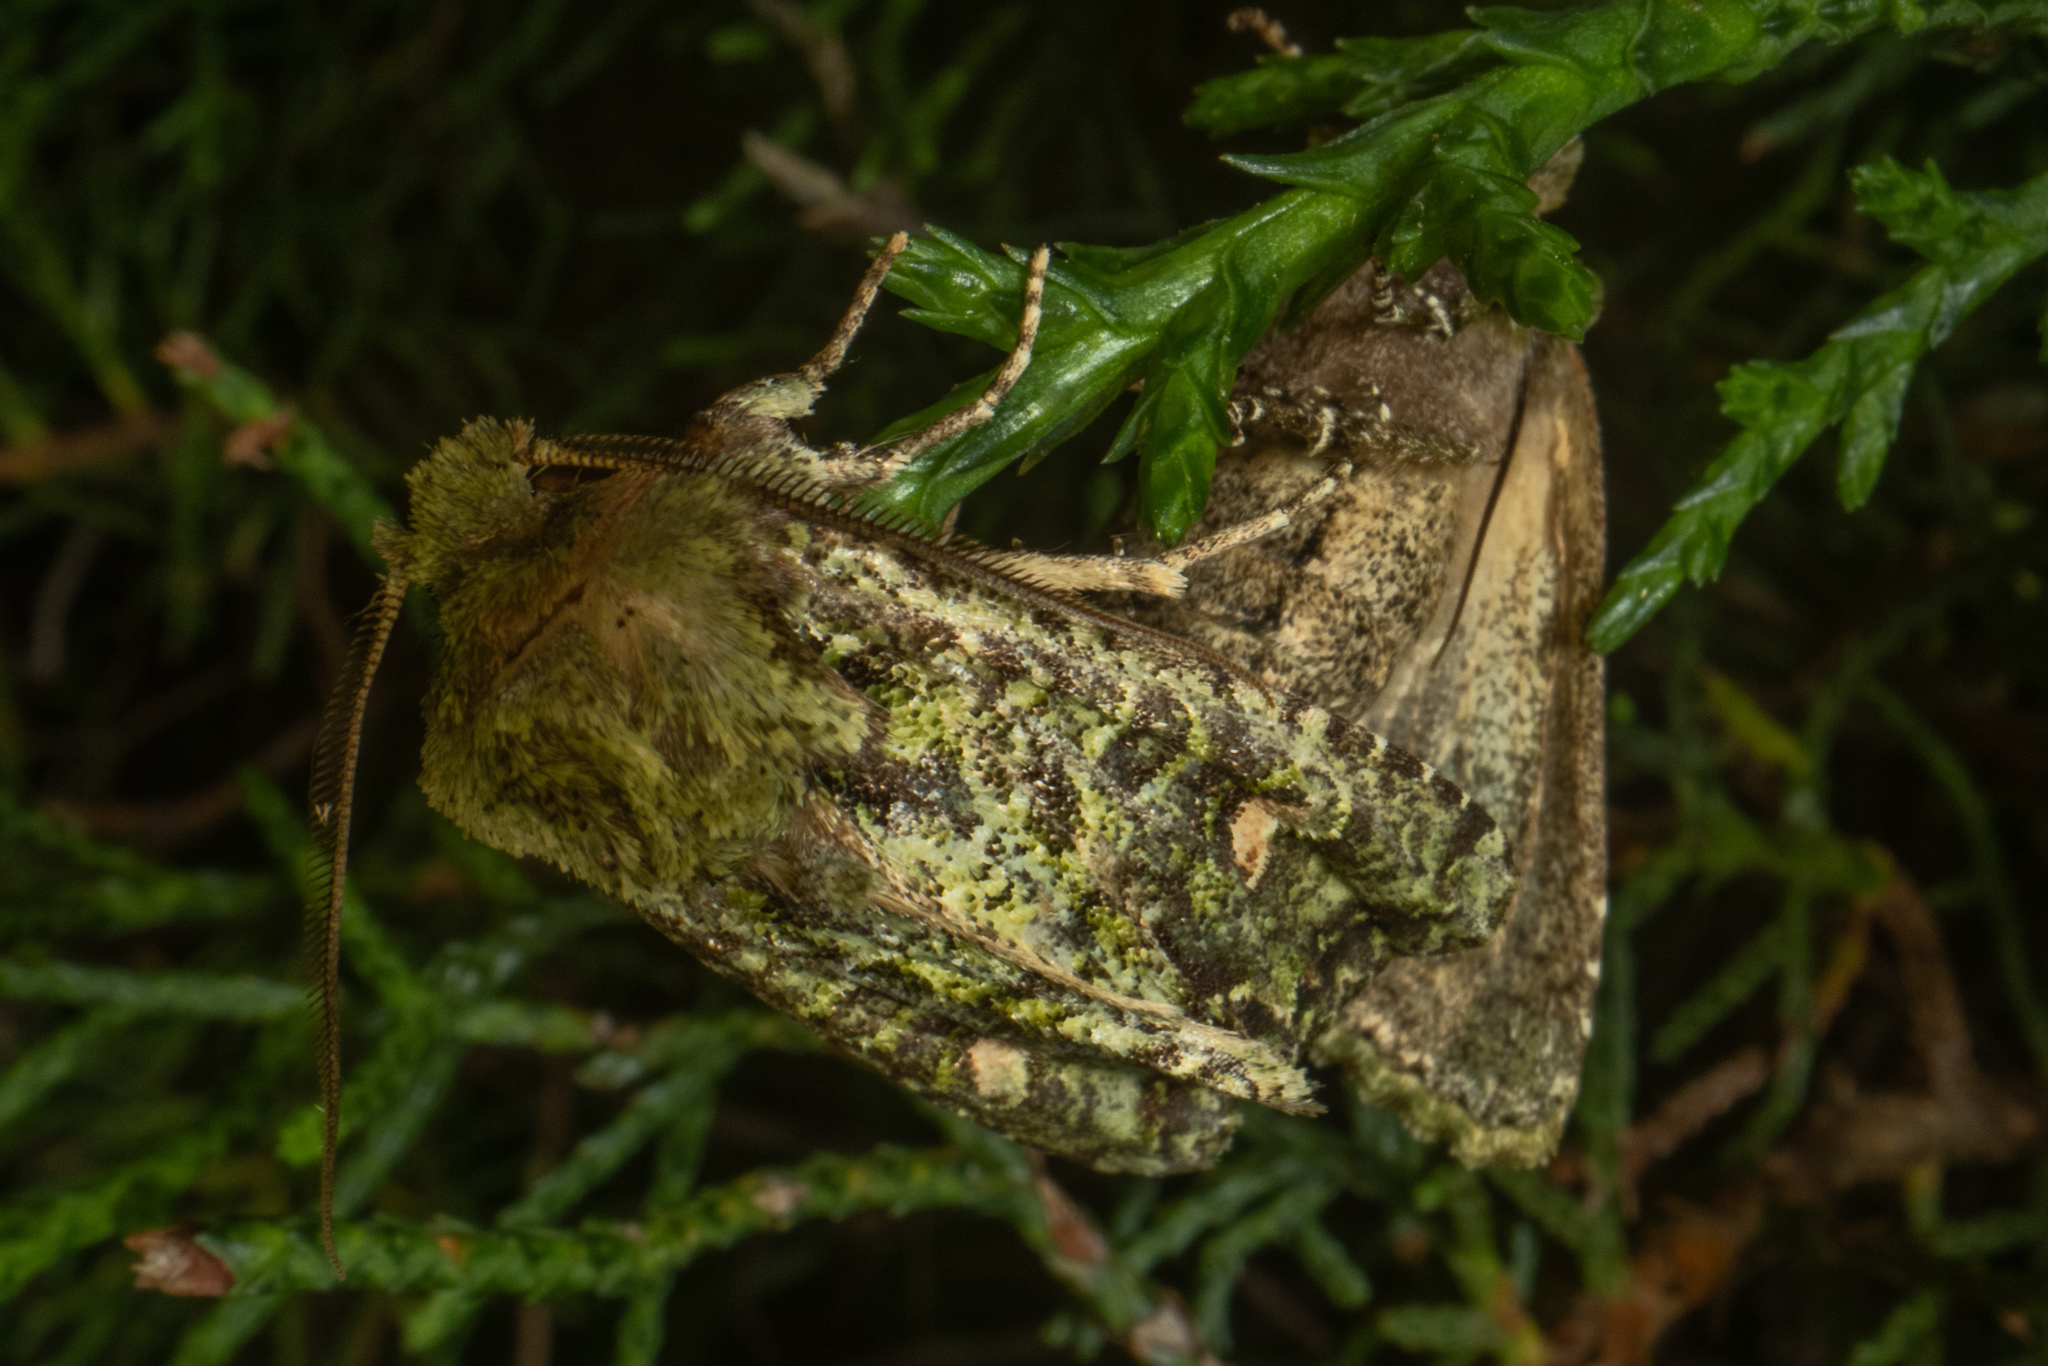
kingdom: Animalia
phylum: Arthropoda
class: Insecta
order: Lepidoptera
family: Noctuidae
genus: Ichneutica
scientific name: Ichneutica
